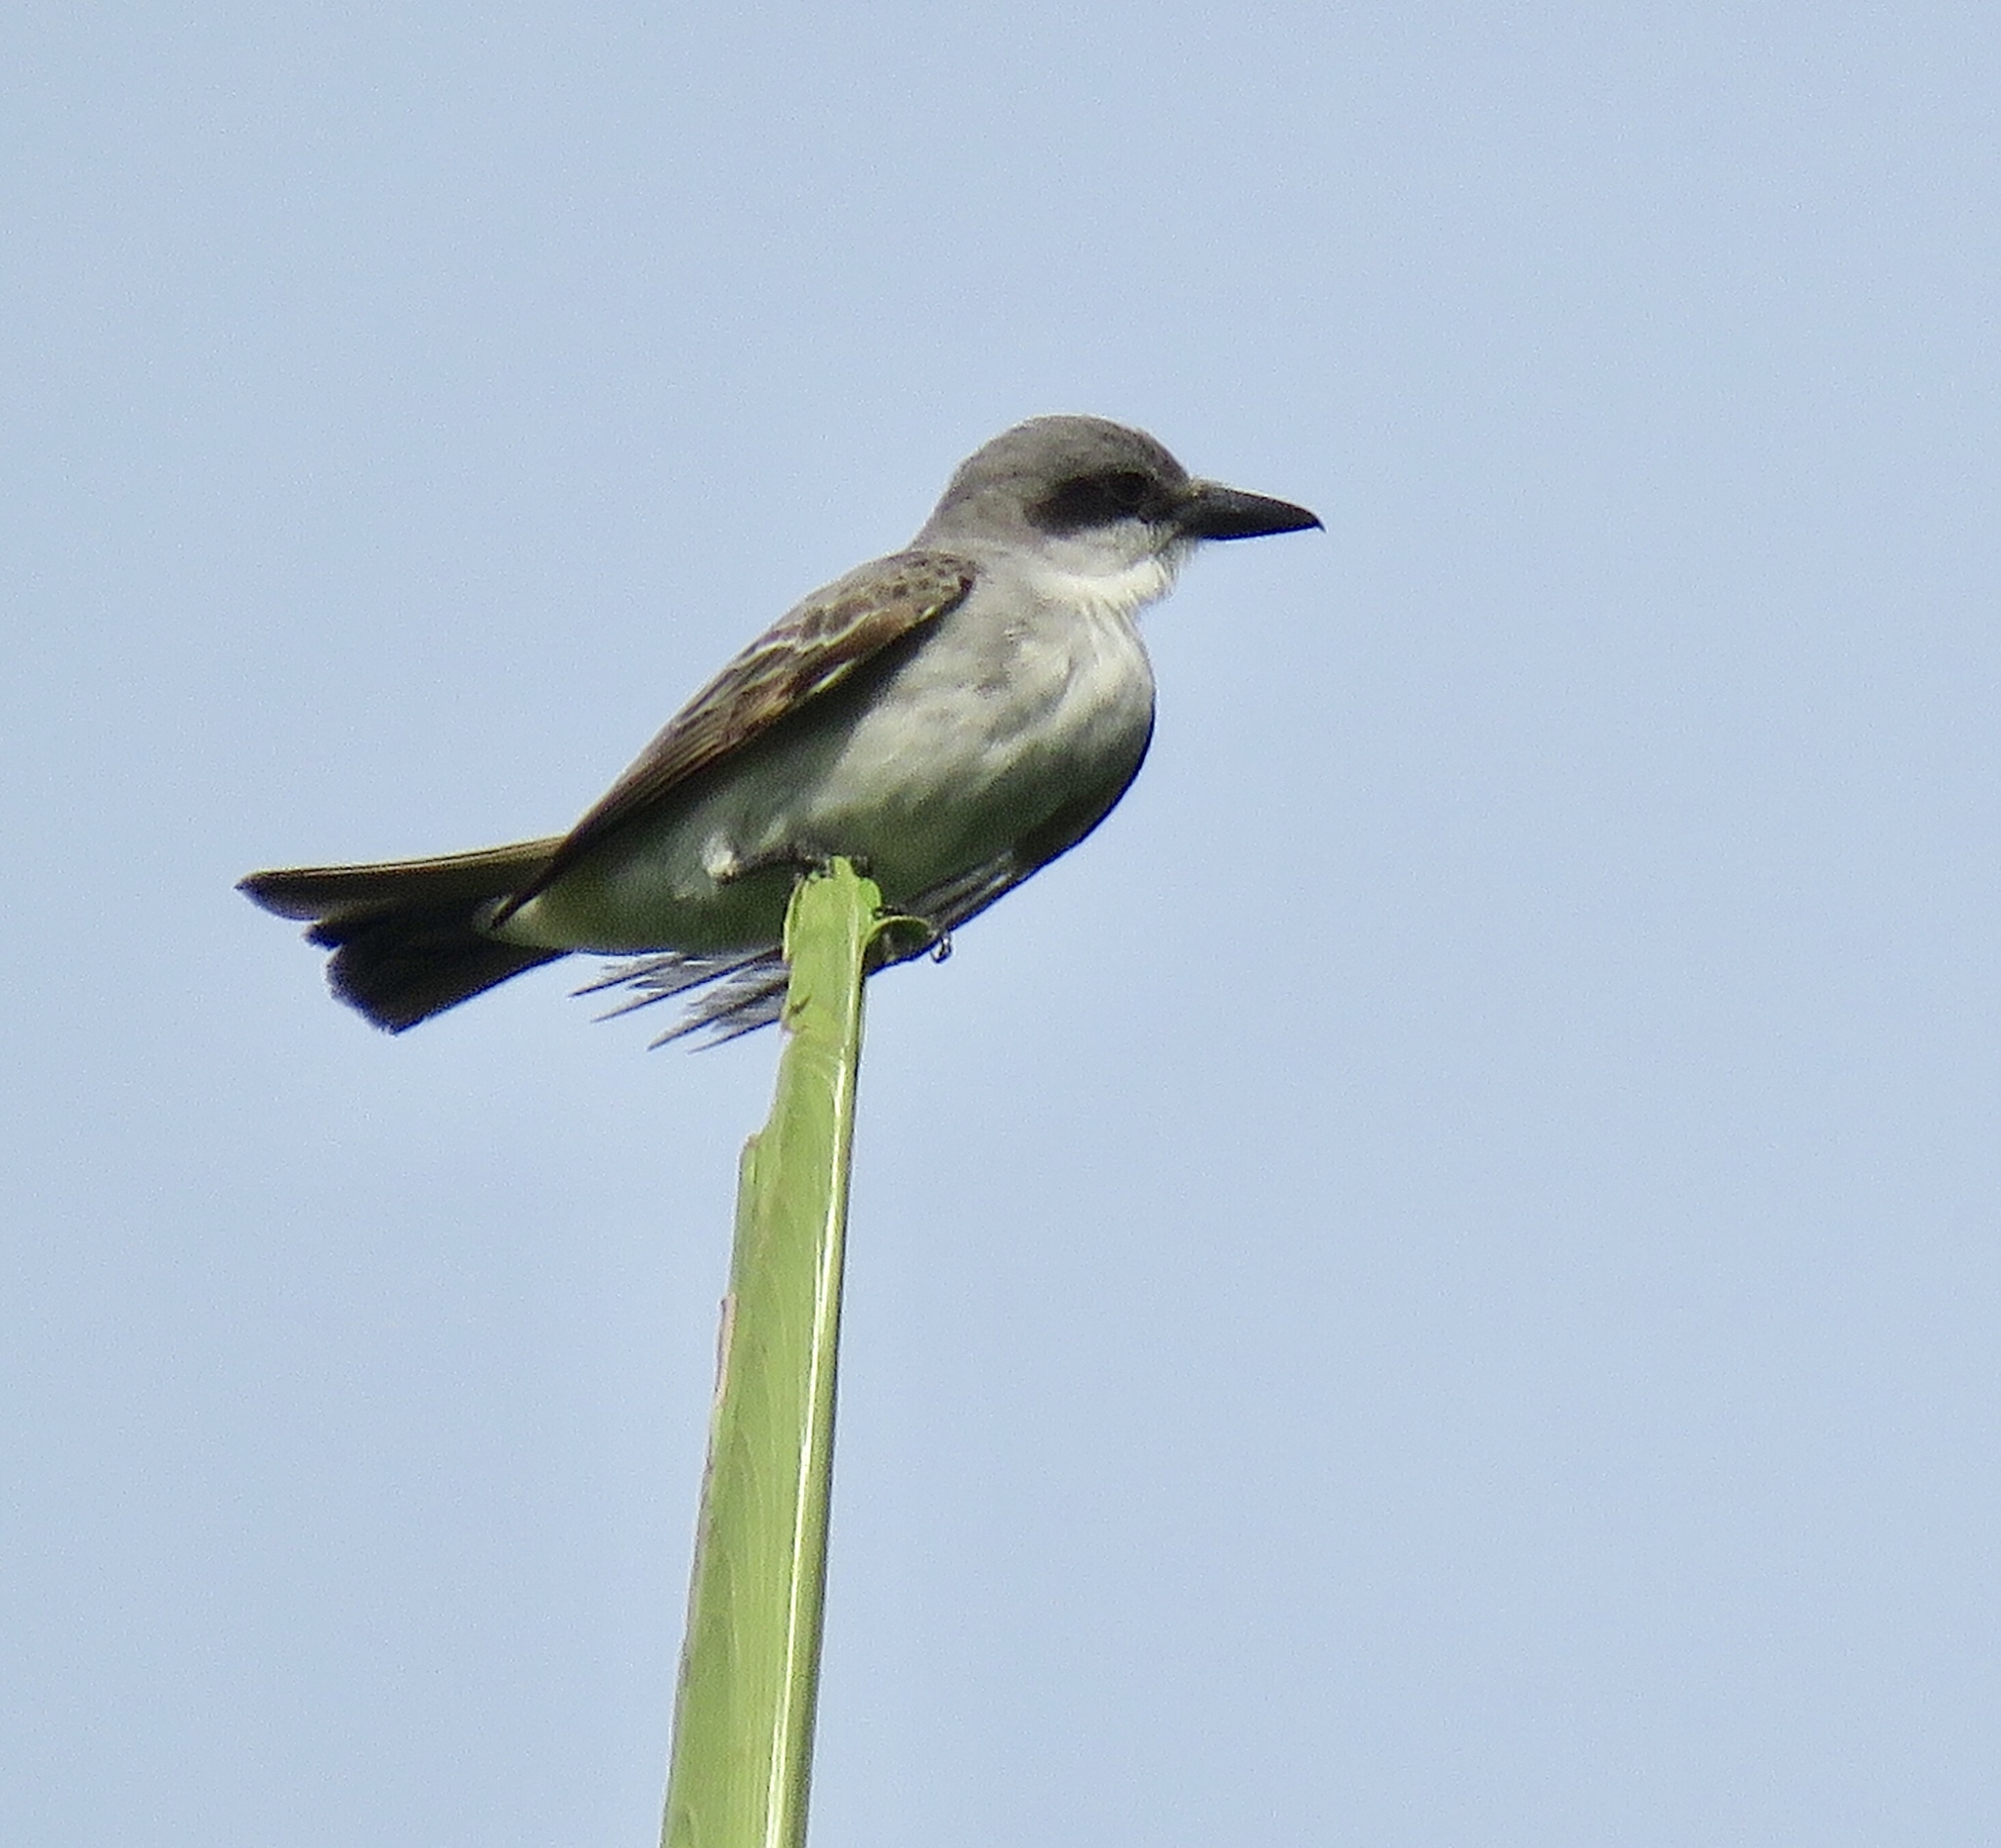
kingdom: Animalia
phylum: Chordata
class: Aves
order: Passeriformes
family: Tyrannidae
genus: Tyrannus
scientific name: Tyrannus dominicensis
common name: Gray kingbird
